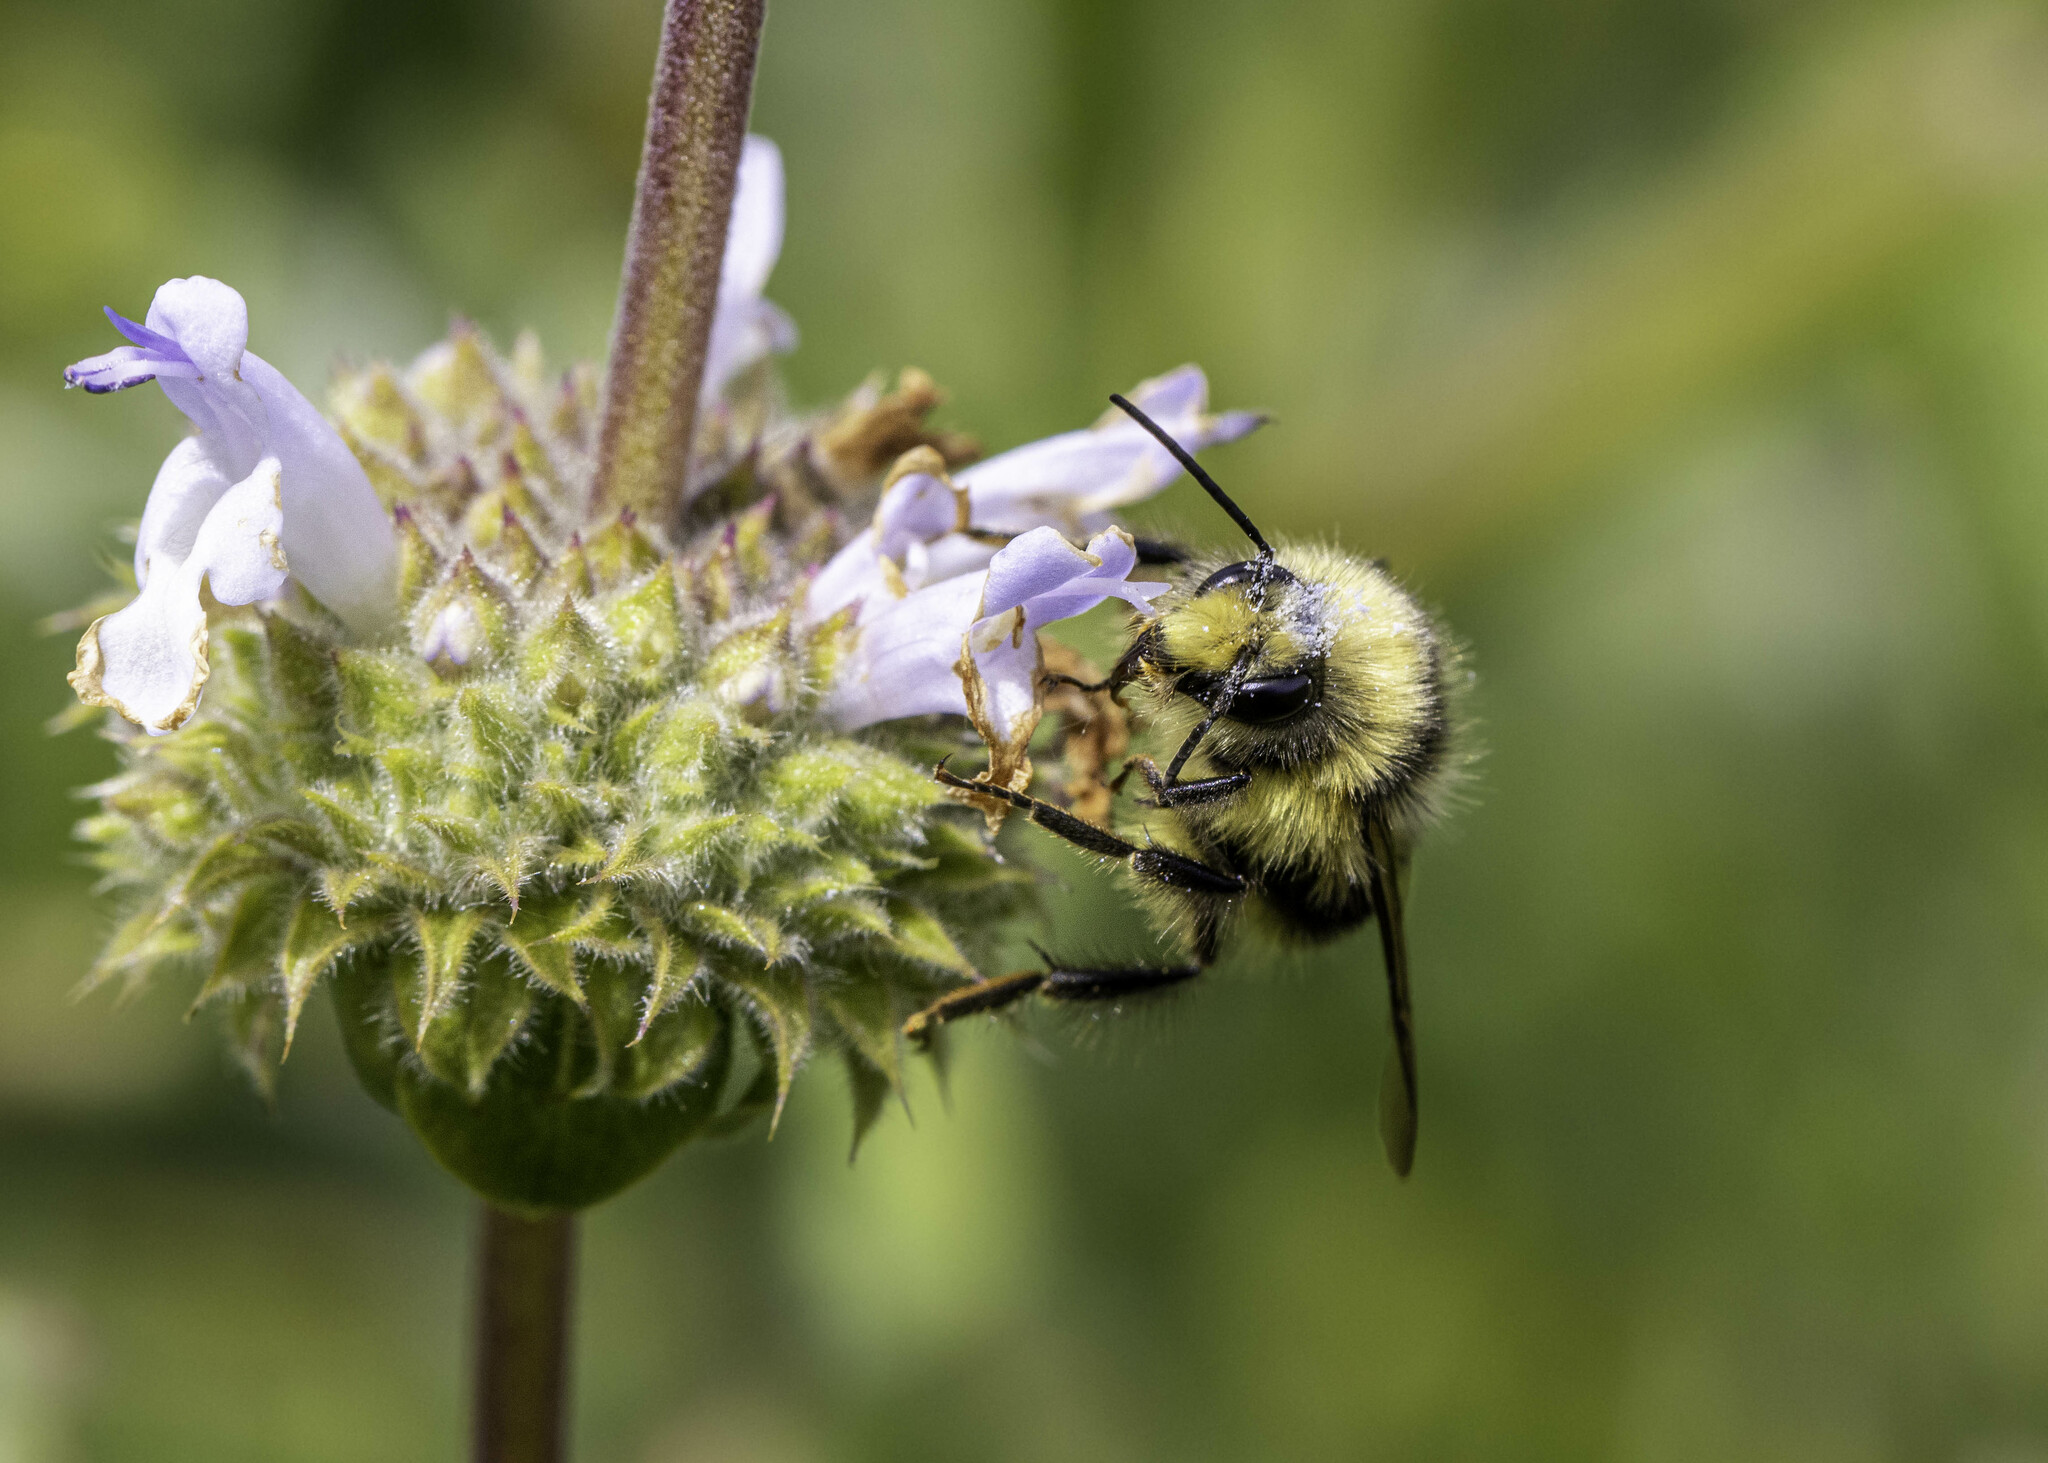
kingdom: Animalia
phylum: Arthropoda
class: Insecta
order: Hymenoptera
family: Apidae
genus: Bombus
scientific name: Bombus melanopygus
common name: Black tail bumble bee
